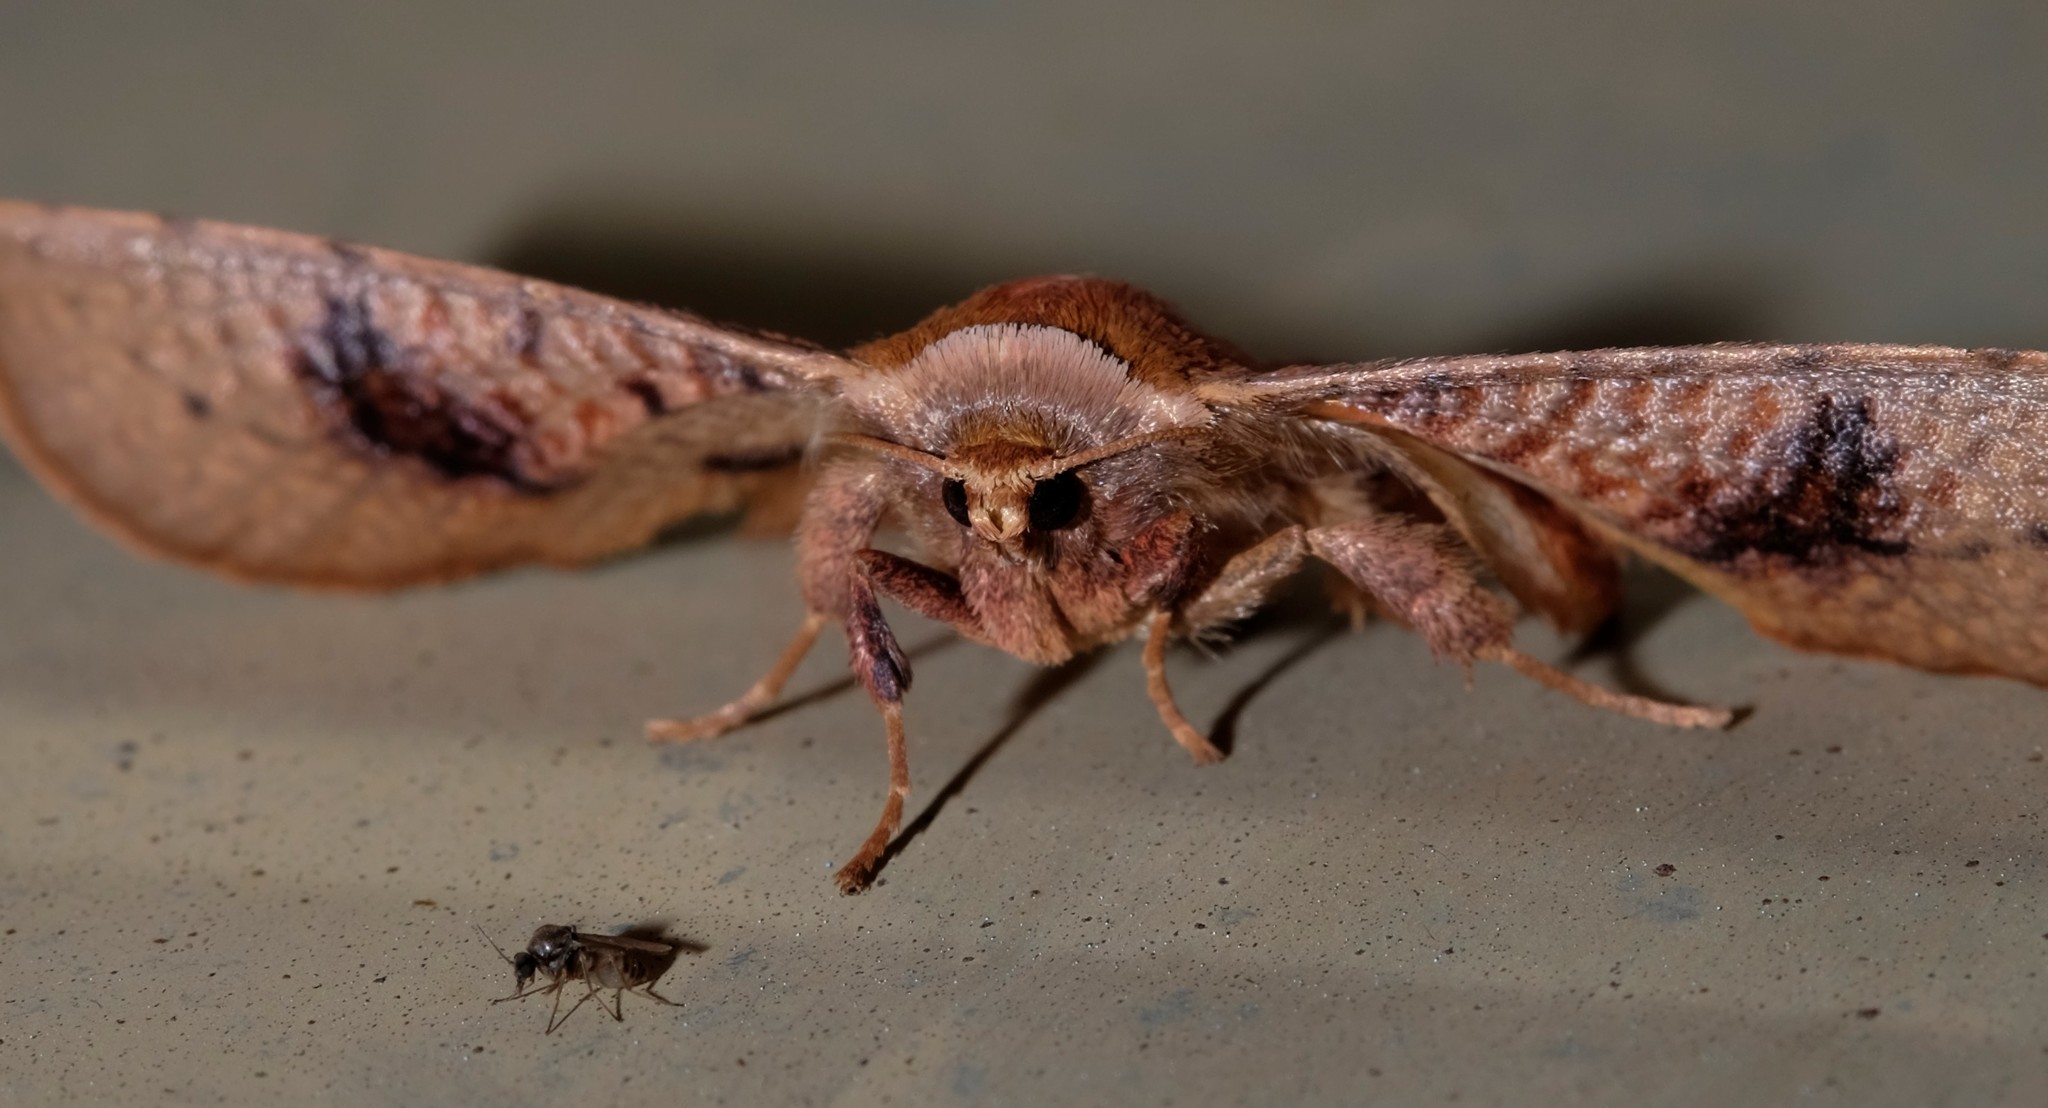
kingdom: Animalia
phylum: Arthropoda
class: Insecta
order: Lepidoptera
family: Thyrididae
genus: Aglaopus
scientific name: Aglaopus pyrrhata
